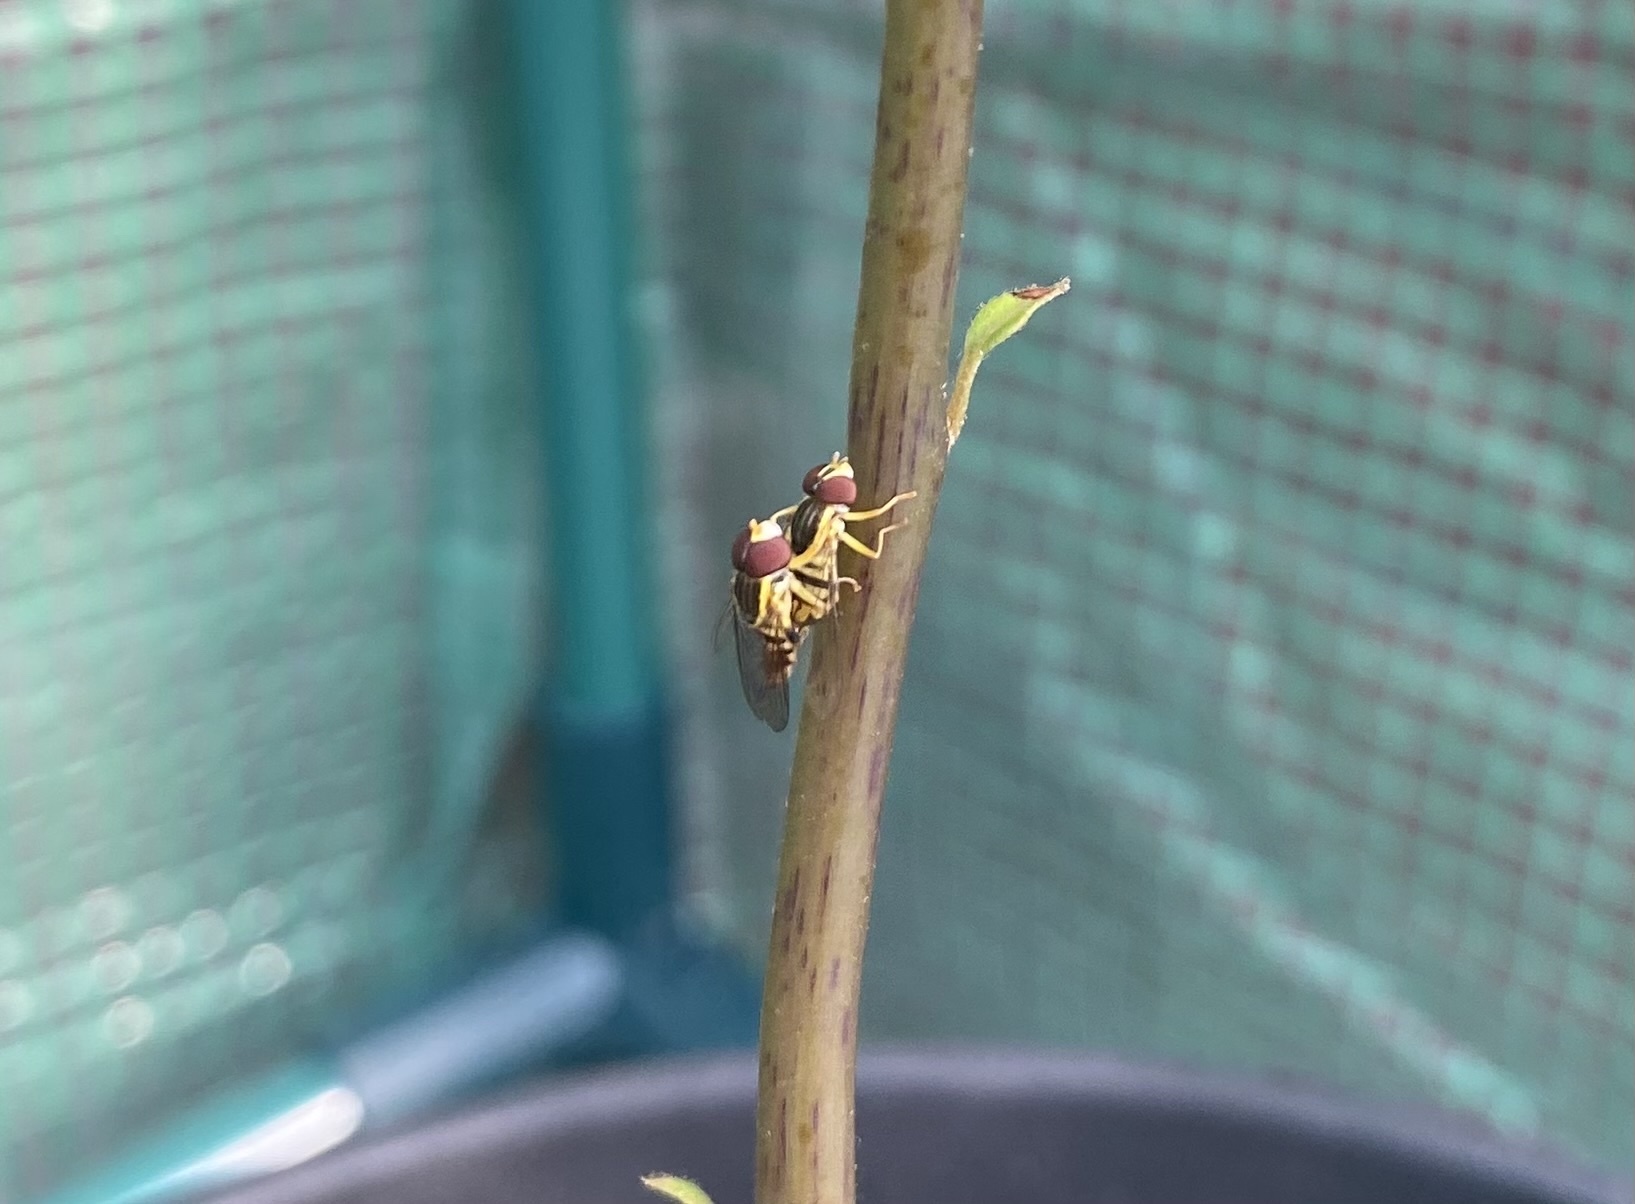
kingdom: Animalia
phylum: Arthropoda
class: Insecta
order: Diptera
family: Syrphidae
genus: Toxomerus
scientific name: Toxomerus geminatus
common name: Eastern calligrapher
